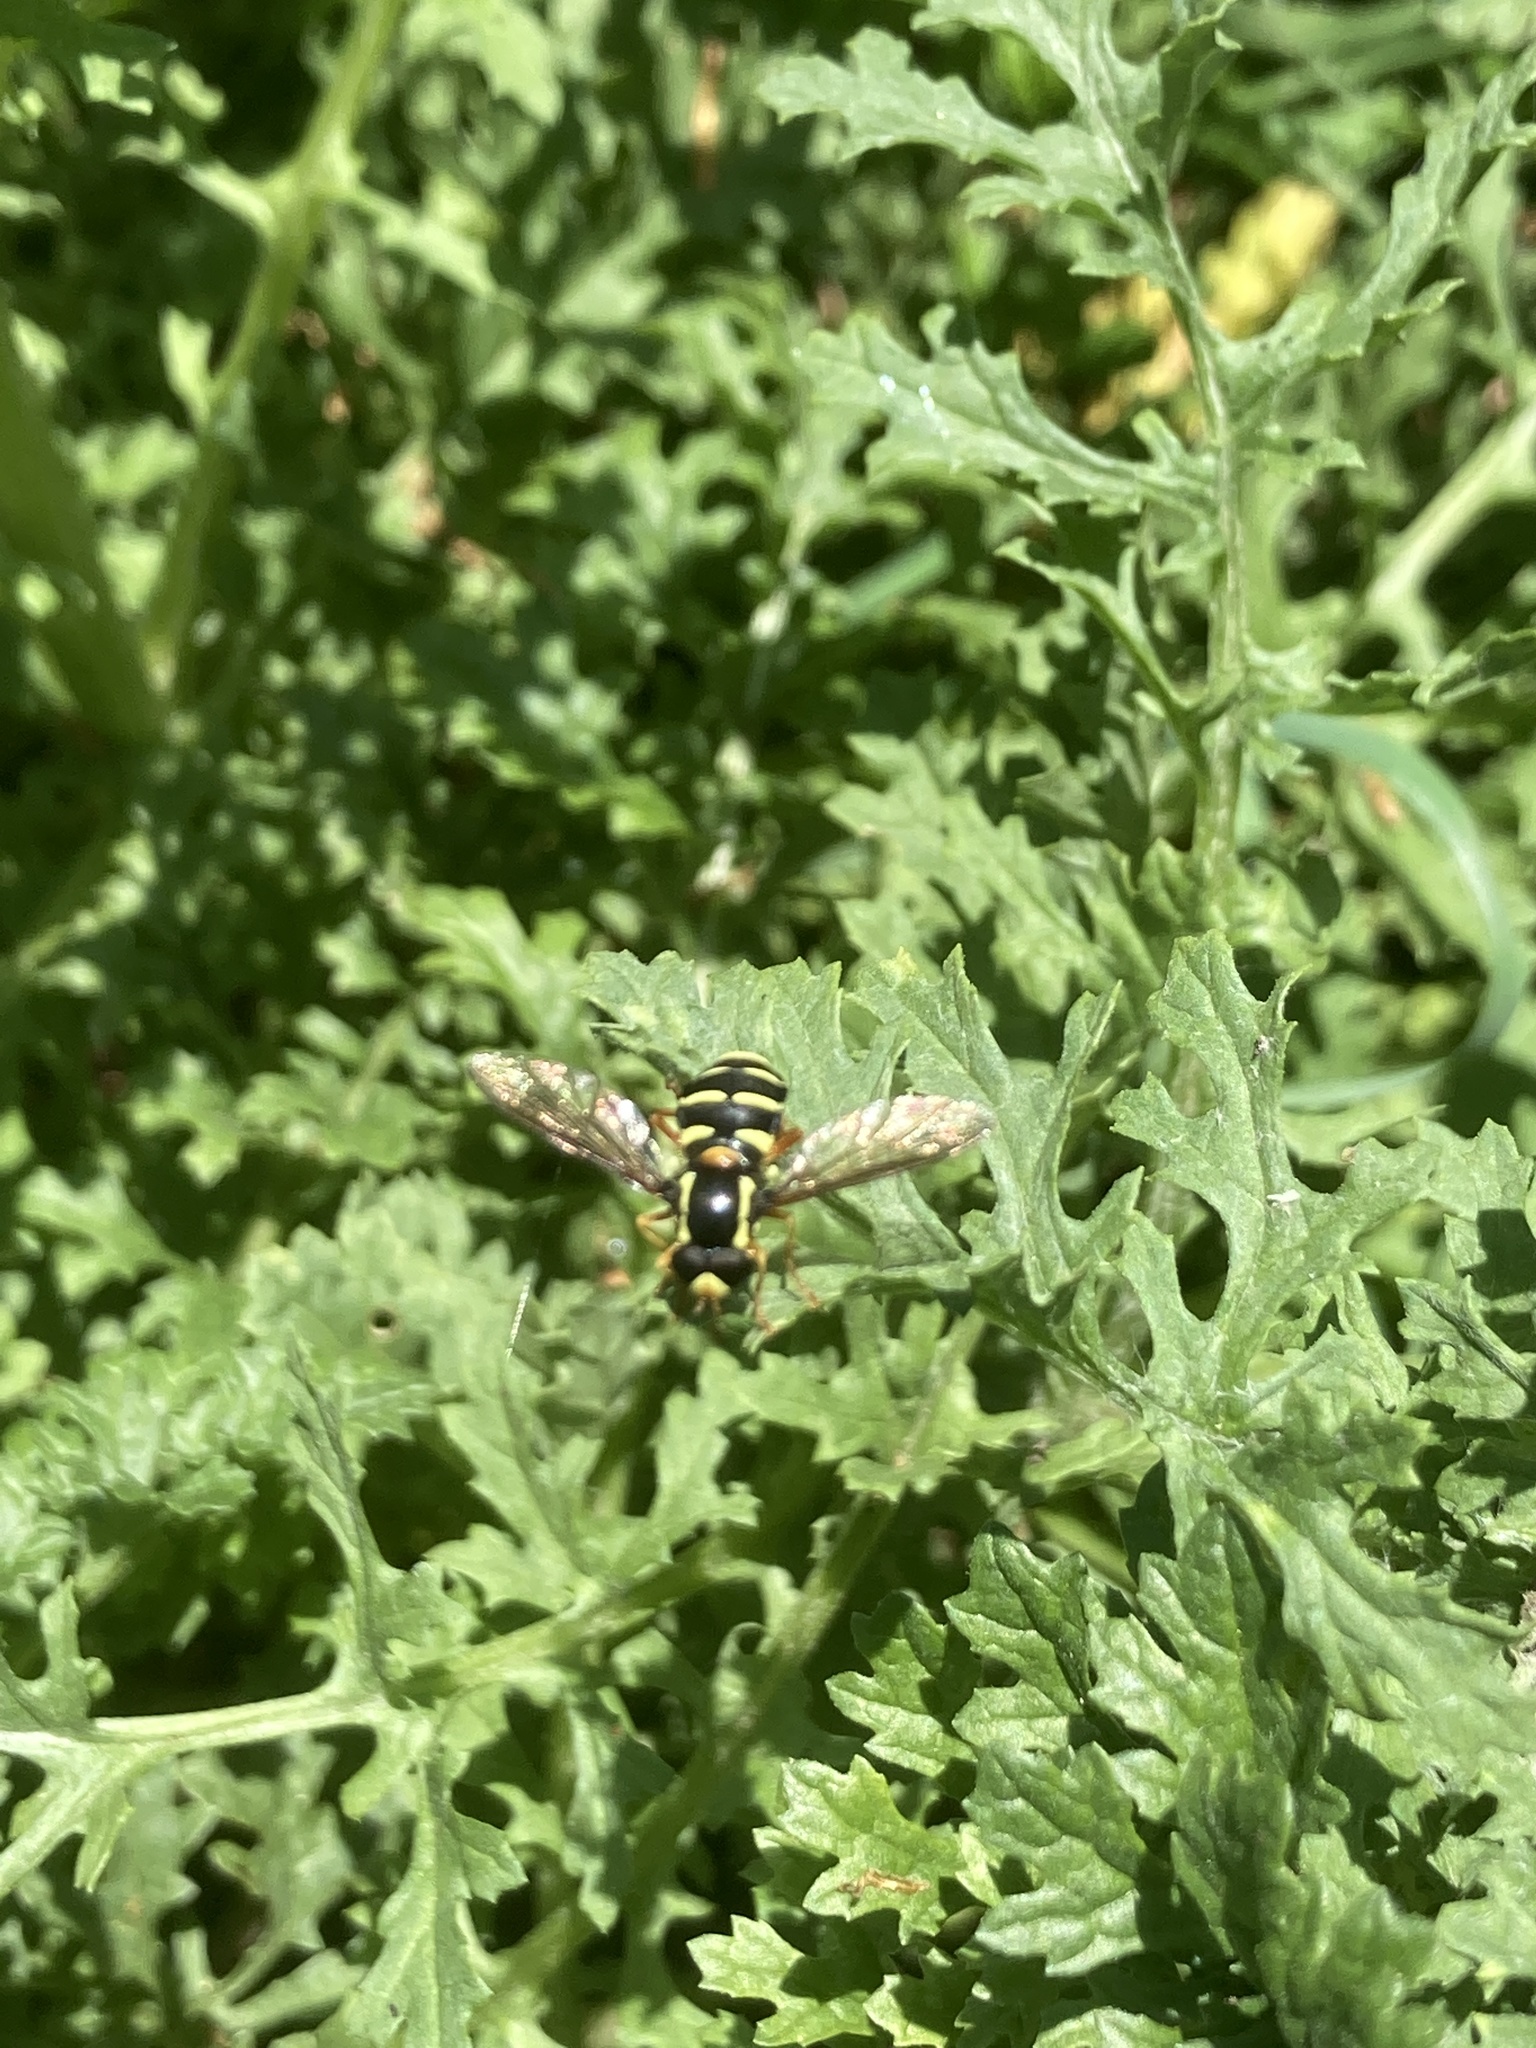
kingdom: Animalia
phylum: Arthropoda
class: Insecta
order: Diptera
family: Syrphidae
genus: Philhelius
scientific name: Philhelius citrofasciata
